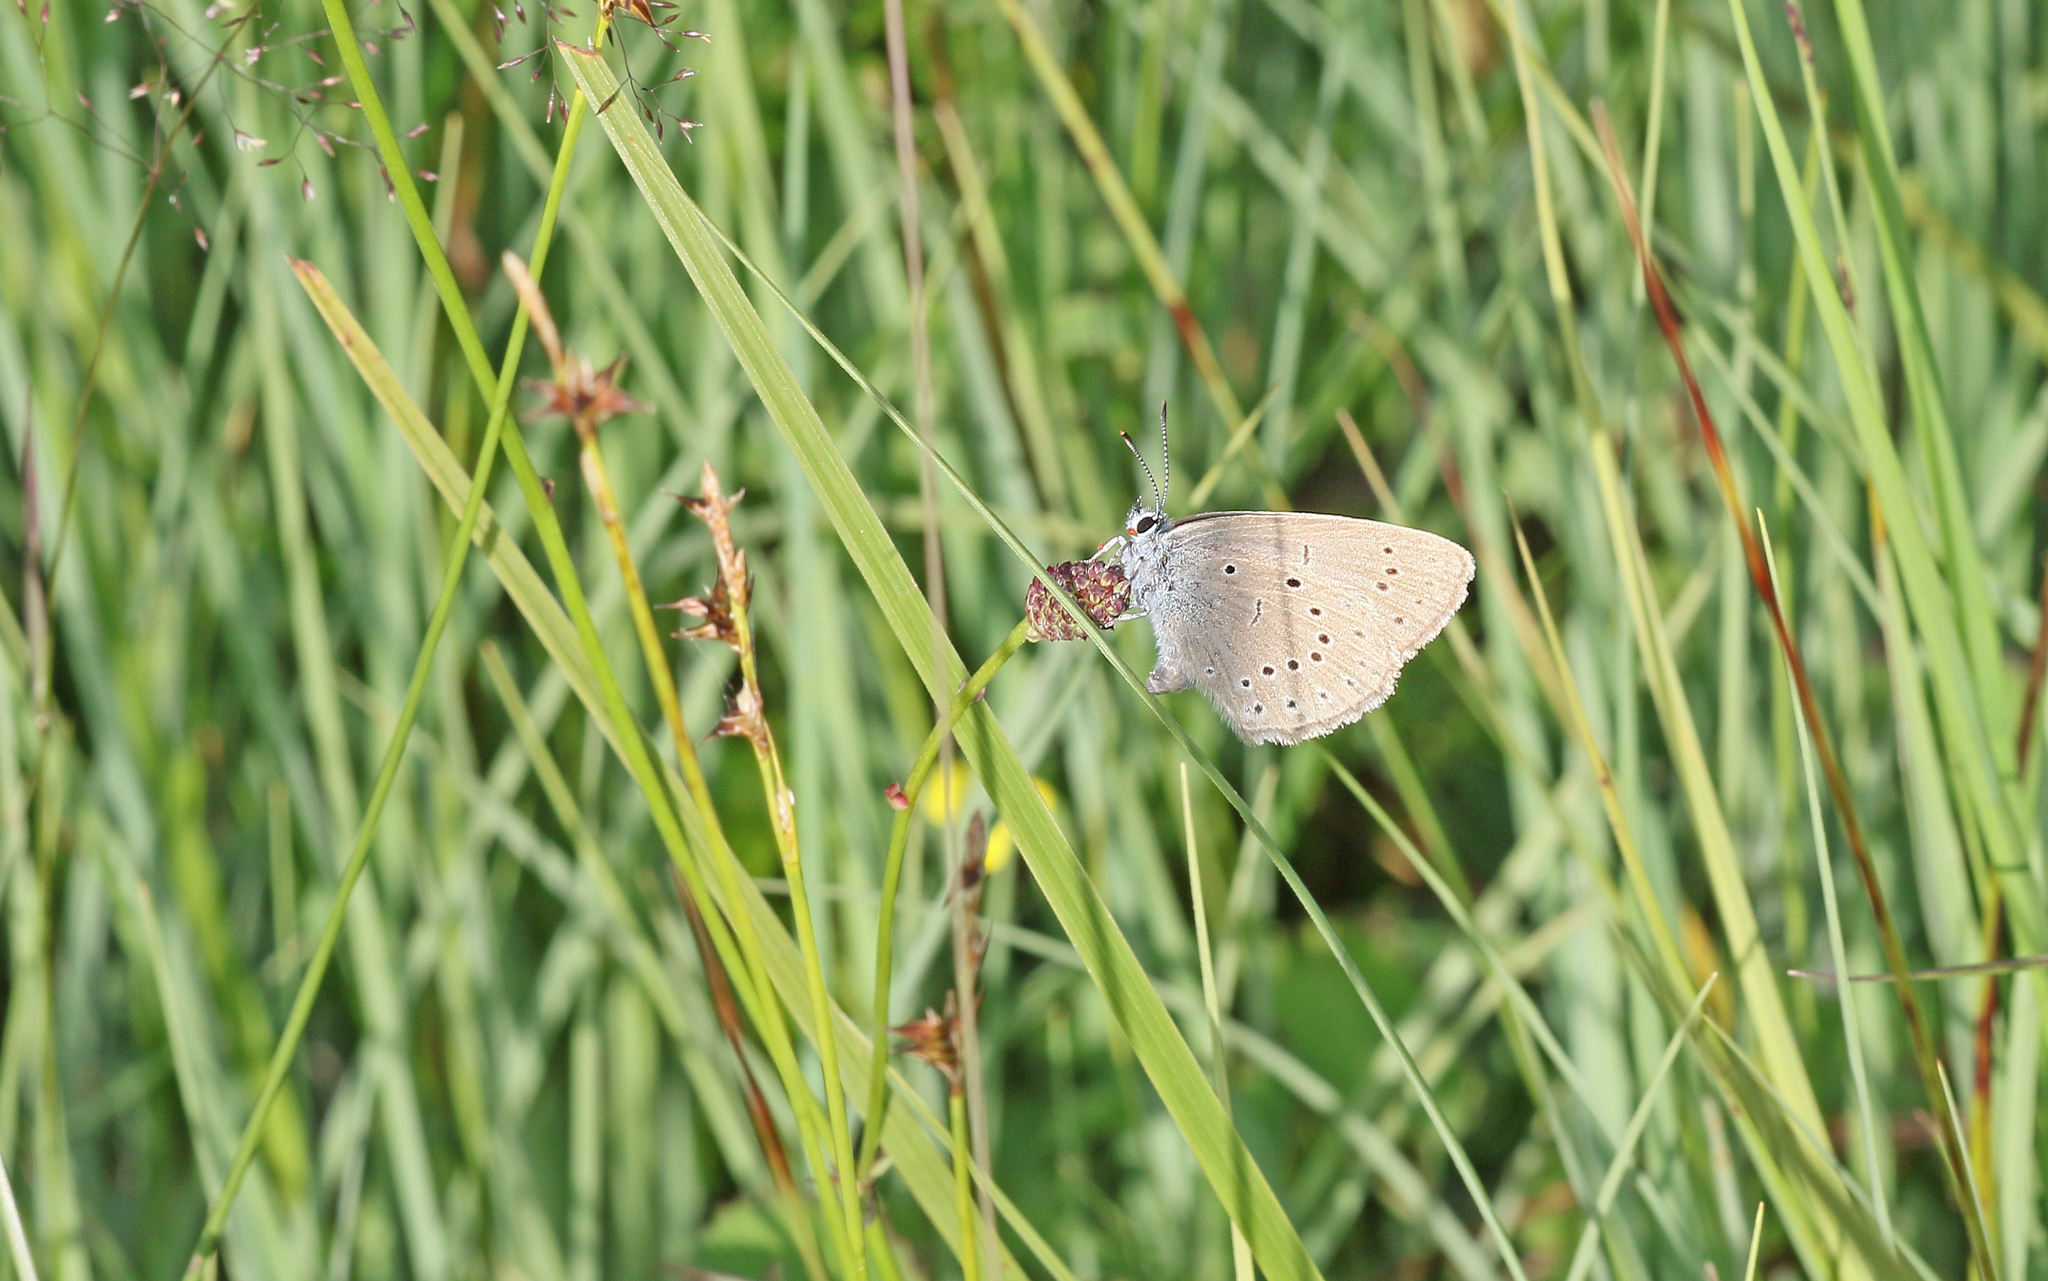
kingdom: Animalia
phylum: Arthropoda
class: Insecta
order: Lepidoptera
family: Lycaenidae
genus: Phengaris
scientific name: Phengaris teleius
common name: Scarce large blue
